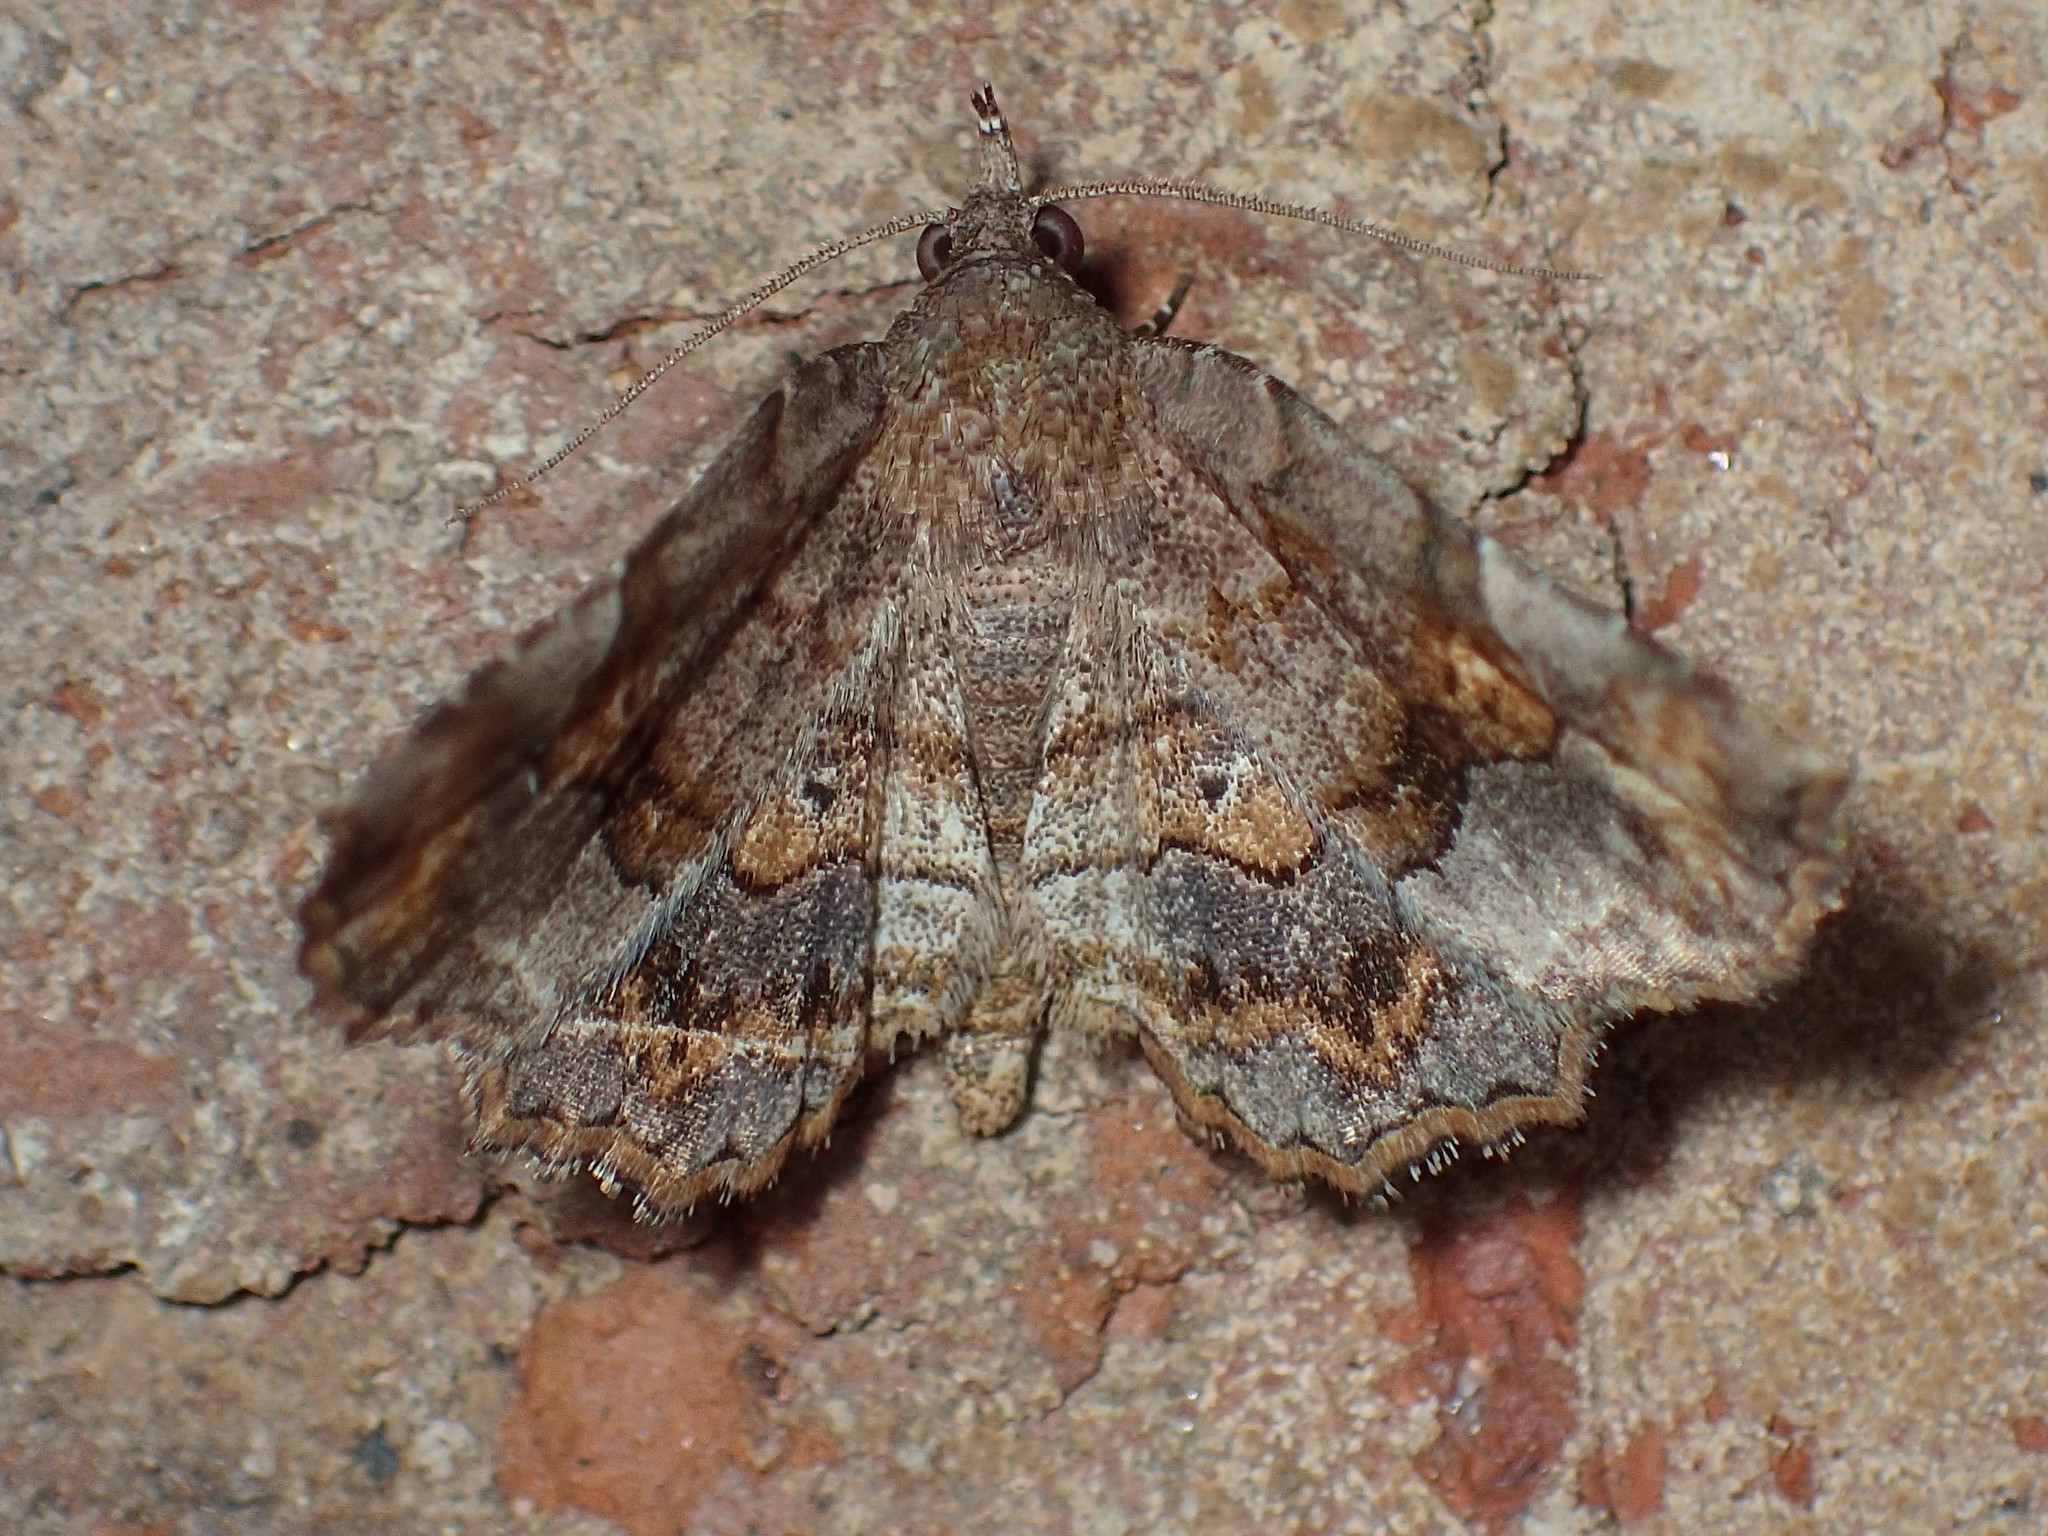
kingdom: Animalia
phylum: Arthropoda
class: Insecta
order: Lepidoptera
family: Erebidae
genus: Pangrapta
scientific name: Pangrapta decoralis
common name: Decorated owlet
